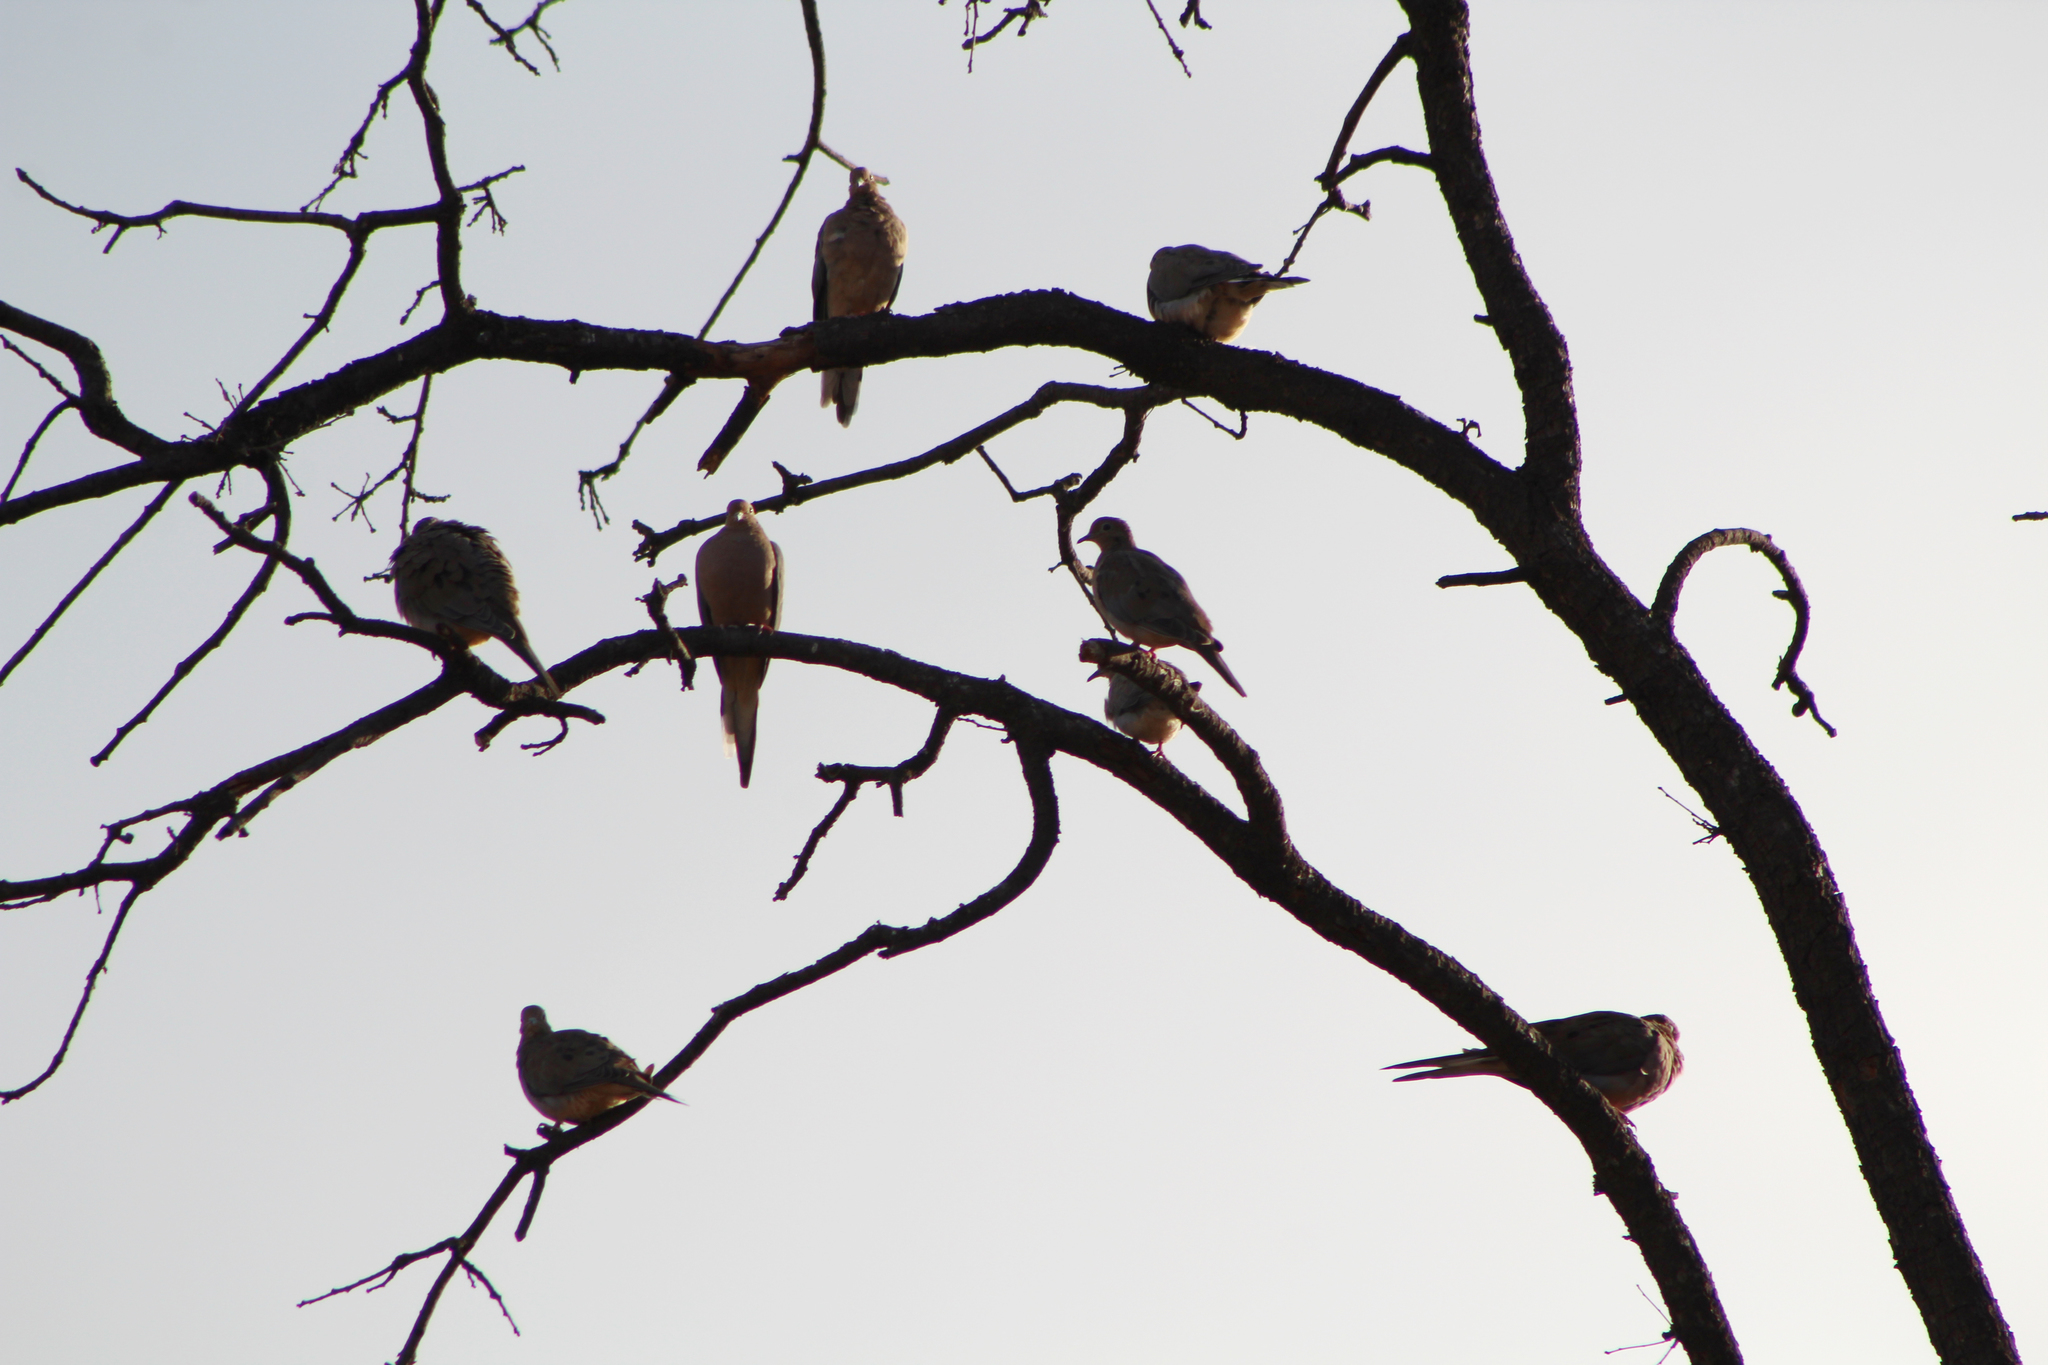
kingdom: Animalia
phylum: Chordata
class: Aves
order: Columbiformes
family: Columbidae
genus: Zenaida
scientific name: Zenaida macroura
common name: Mourning dove
